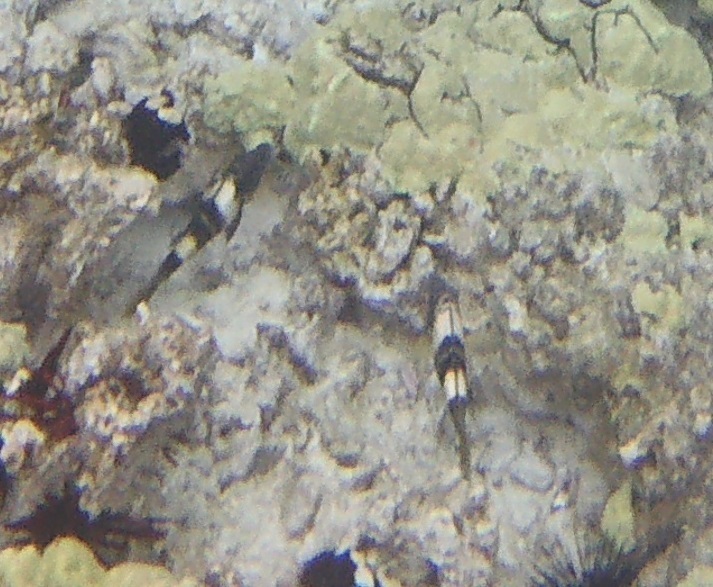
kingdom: Animalia
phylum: Chordata
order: Perciformes
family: Mullidae
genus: Parupeneus
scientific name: Parupeneus multifasciatus
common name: Manybar goatfish
